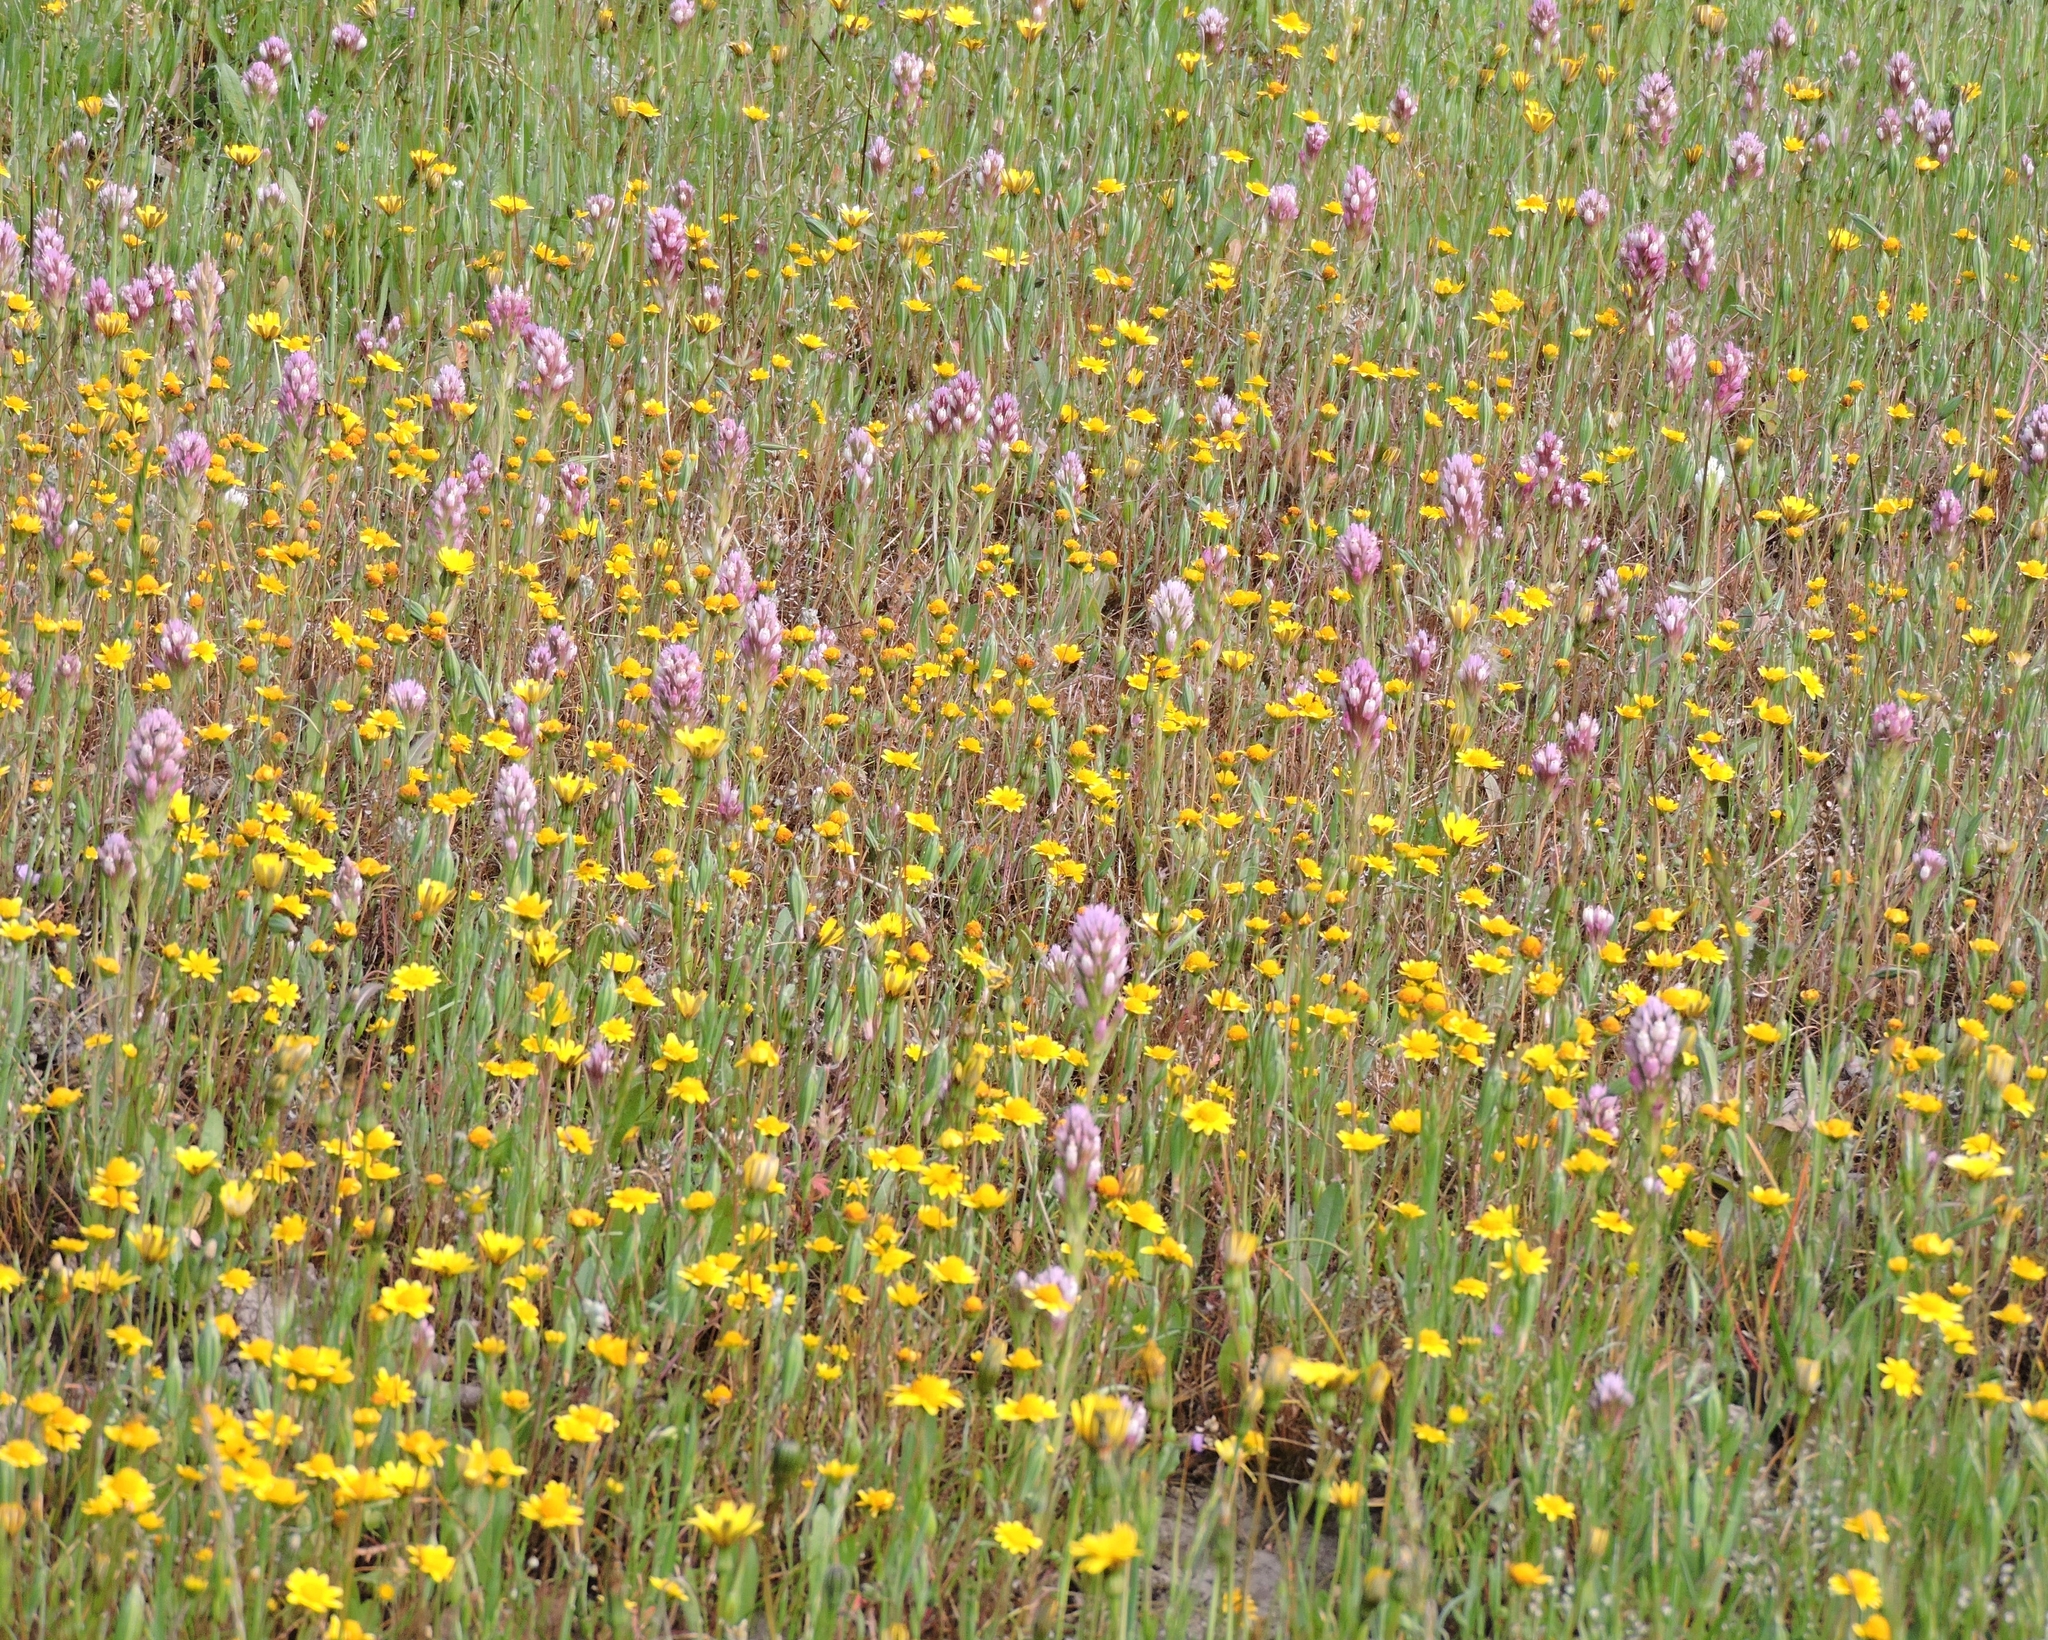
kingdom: Plantae
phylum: Tracheophyta
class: Magnoliopsida
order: Asterales
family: Asteraceae
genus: Lasthenia
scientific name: Lasthenia californica
